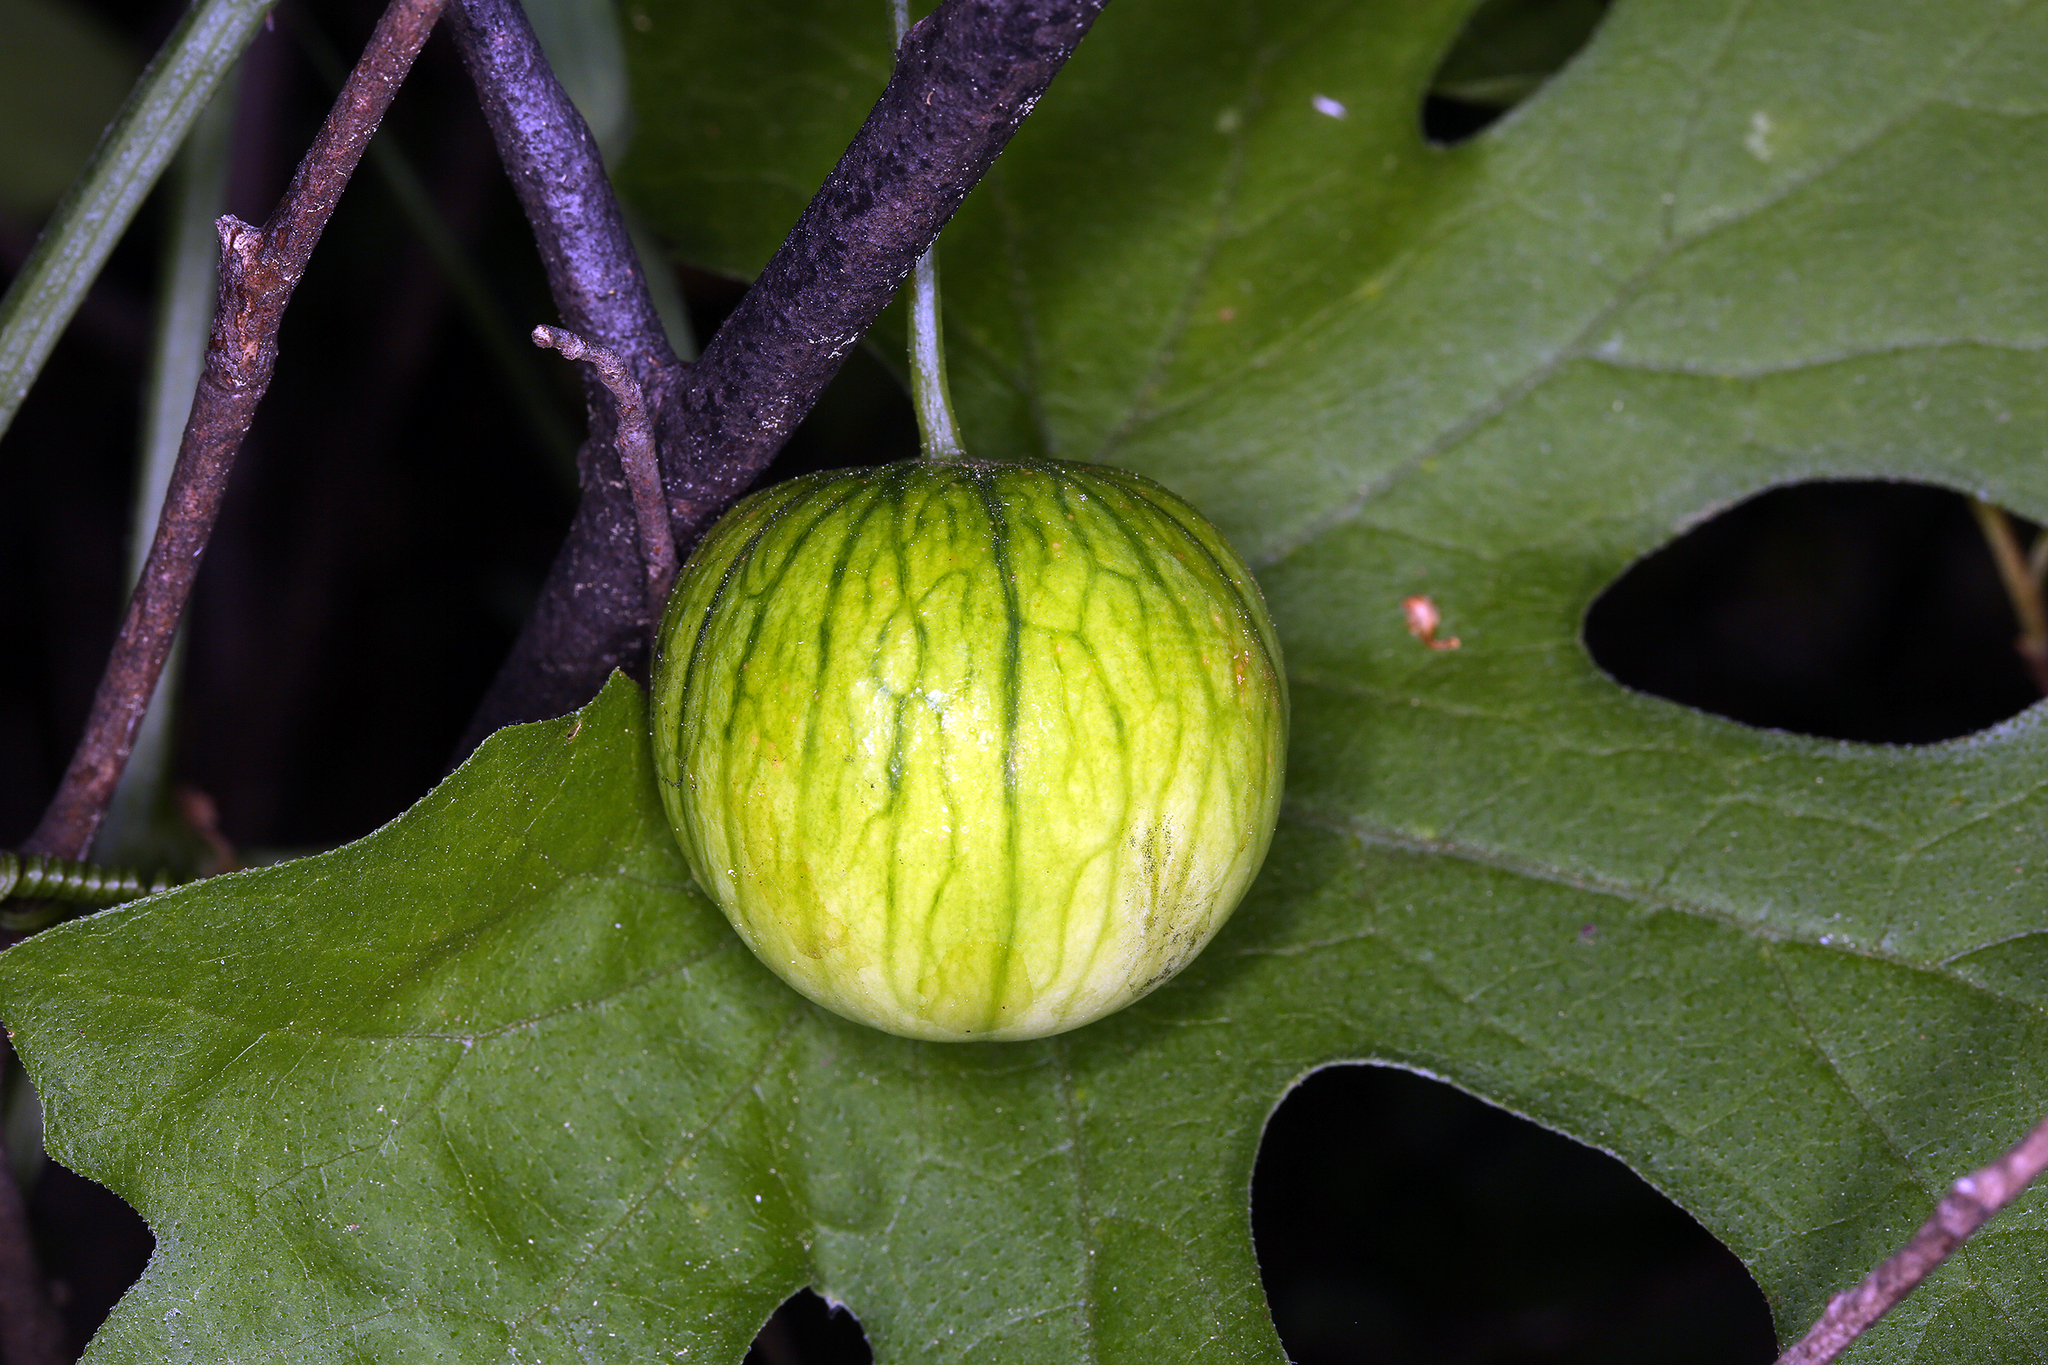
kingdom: Plantae
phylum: Tracheophyta
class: Magnoliopsida
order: Cucurbitales
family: Cucurbitaceae
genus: Marah
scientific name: Marah watsonii
